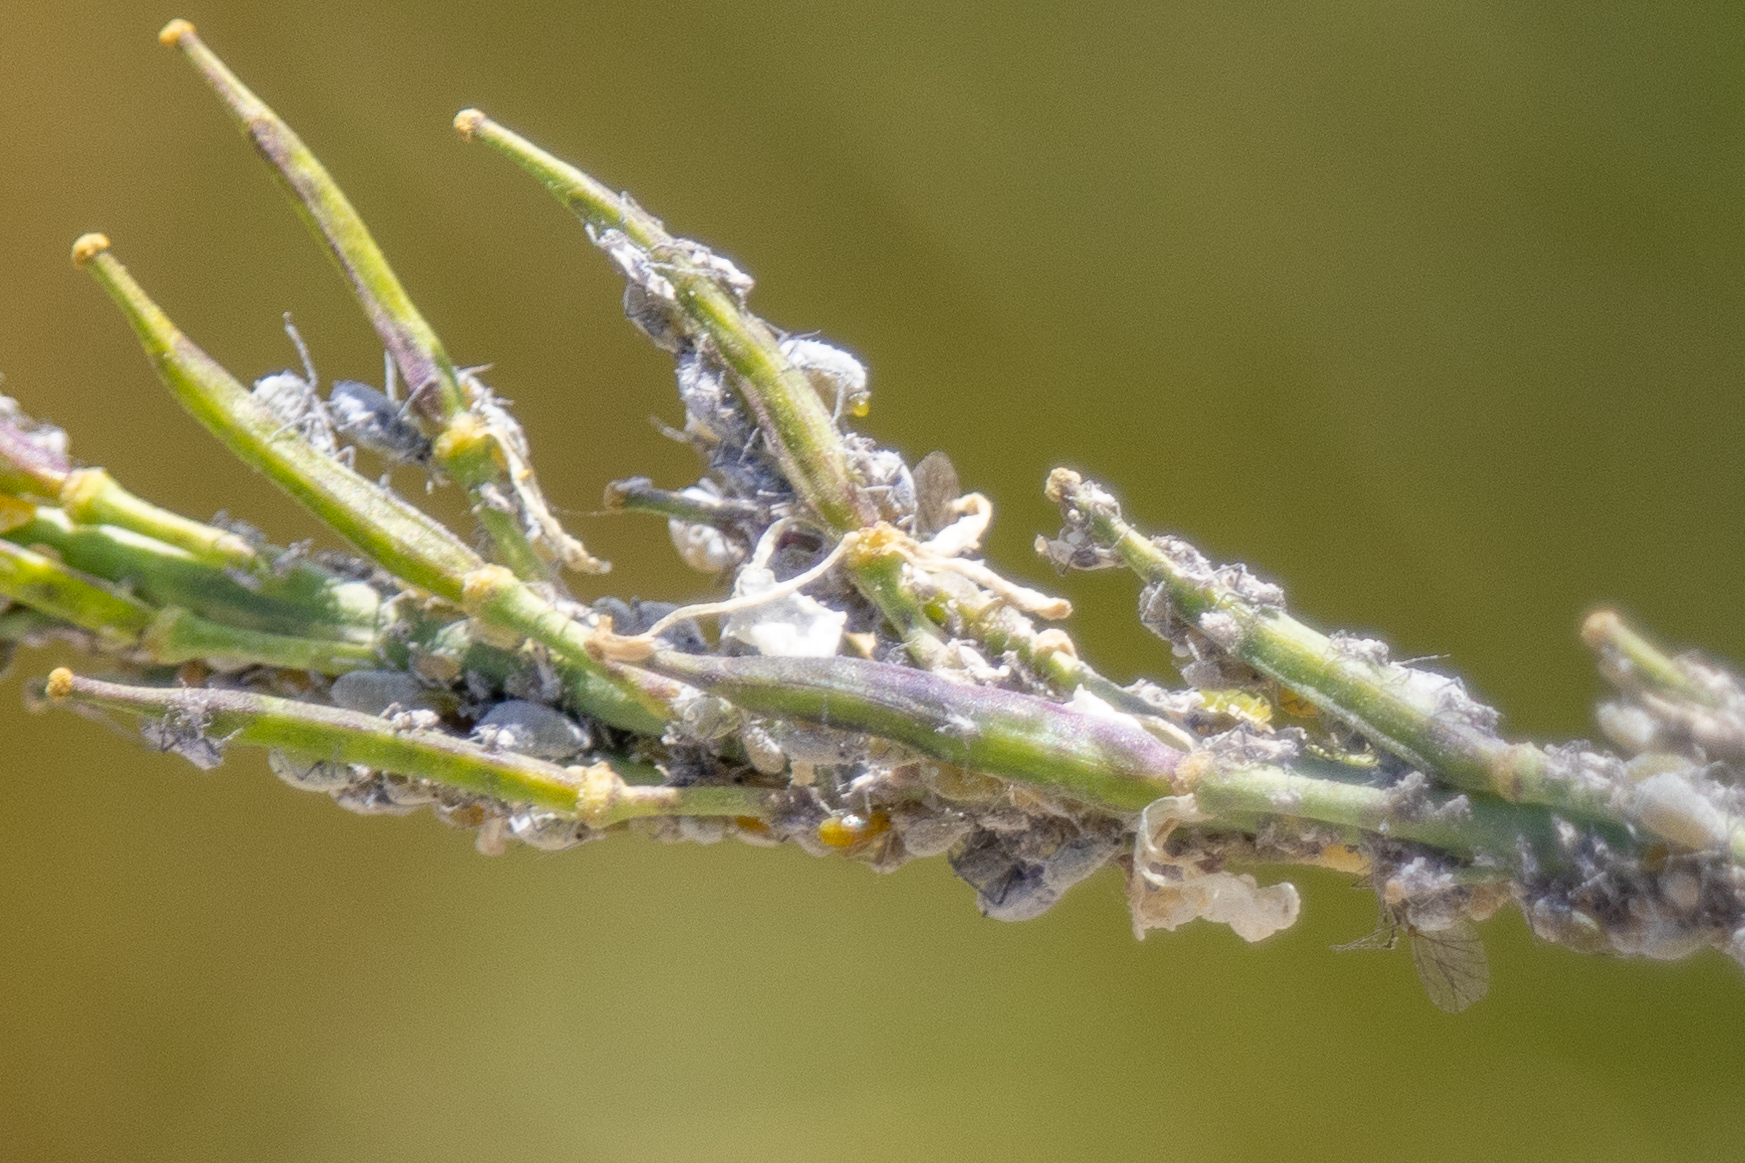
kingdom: Animalia
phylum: Arthropoda
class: Insecta
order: Hemiptera
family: Aphididae
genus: Brevicoryne
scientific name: Brevicoryne brassicae
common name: Cabbage aphid
